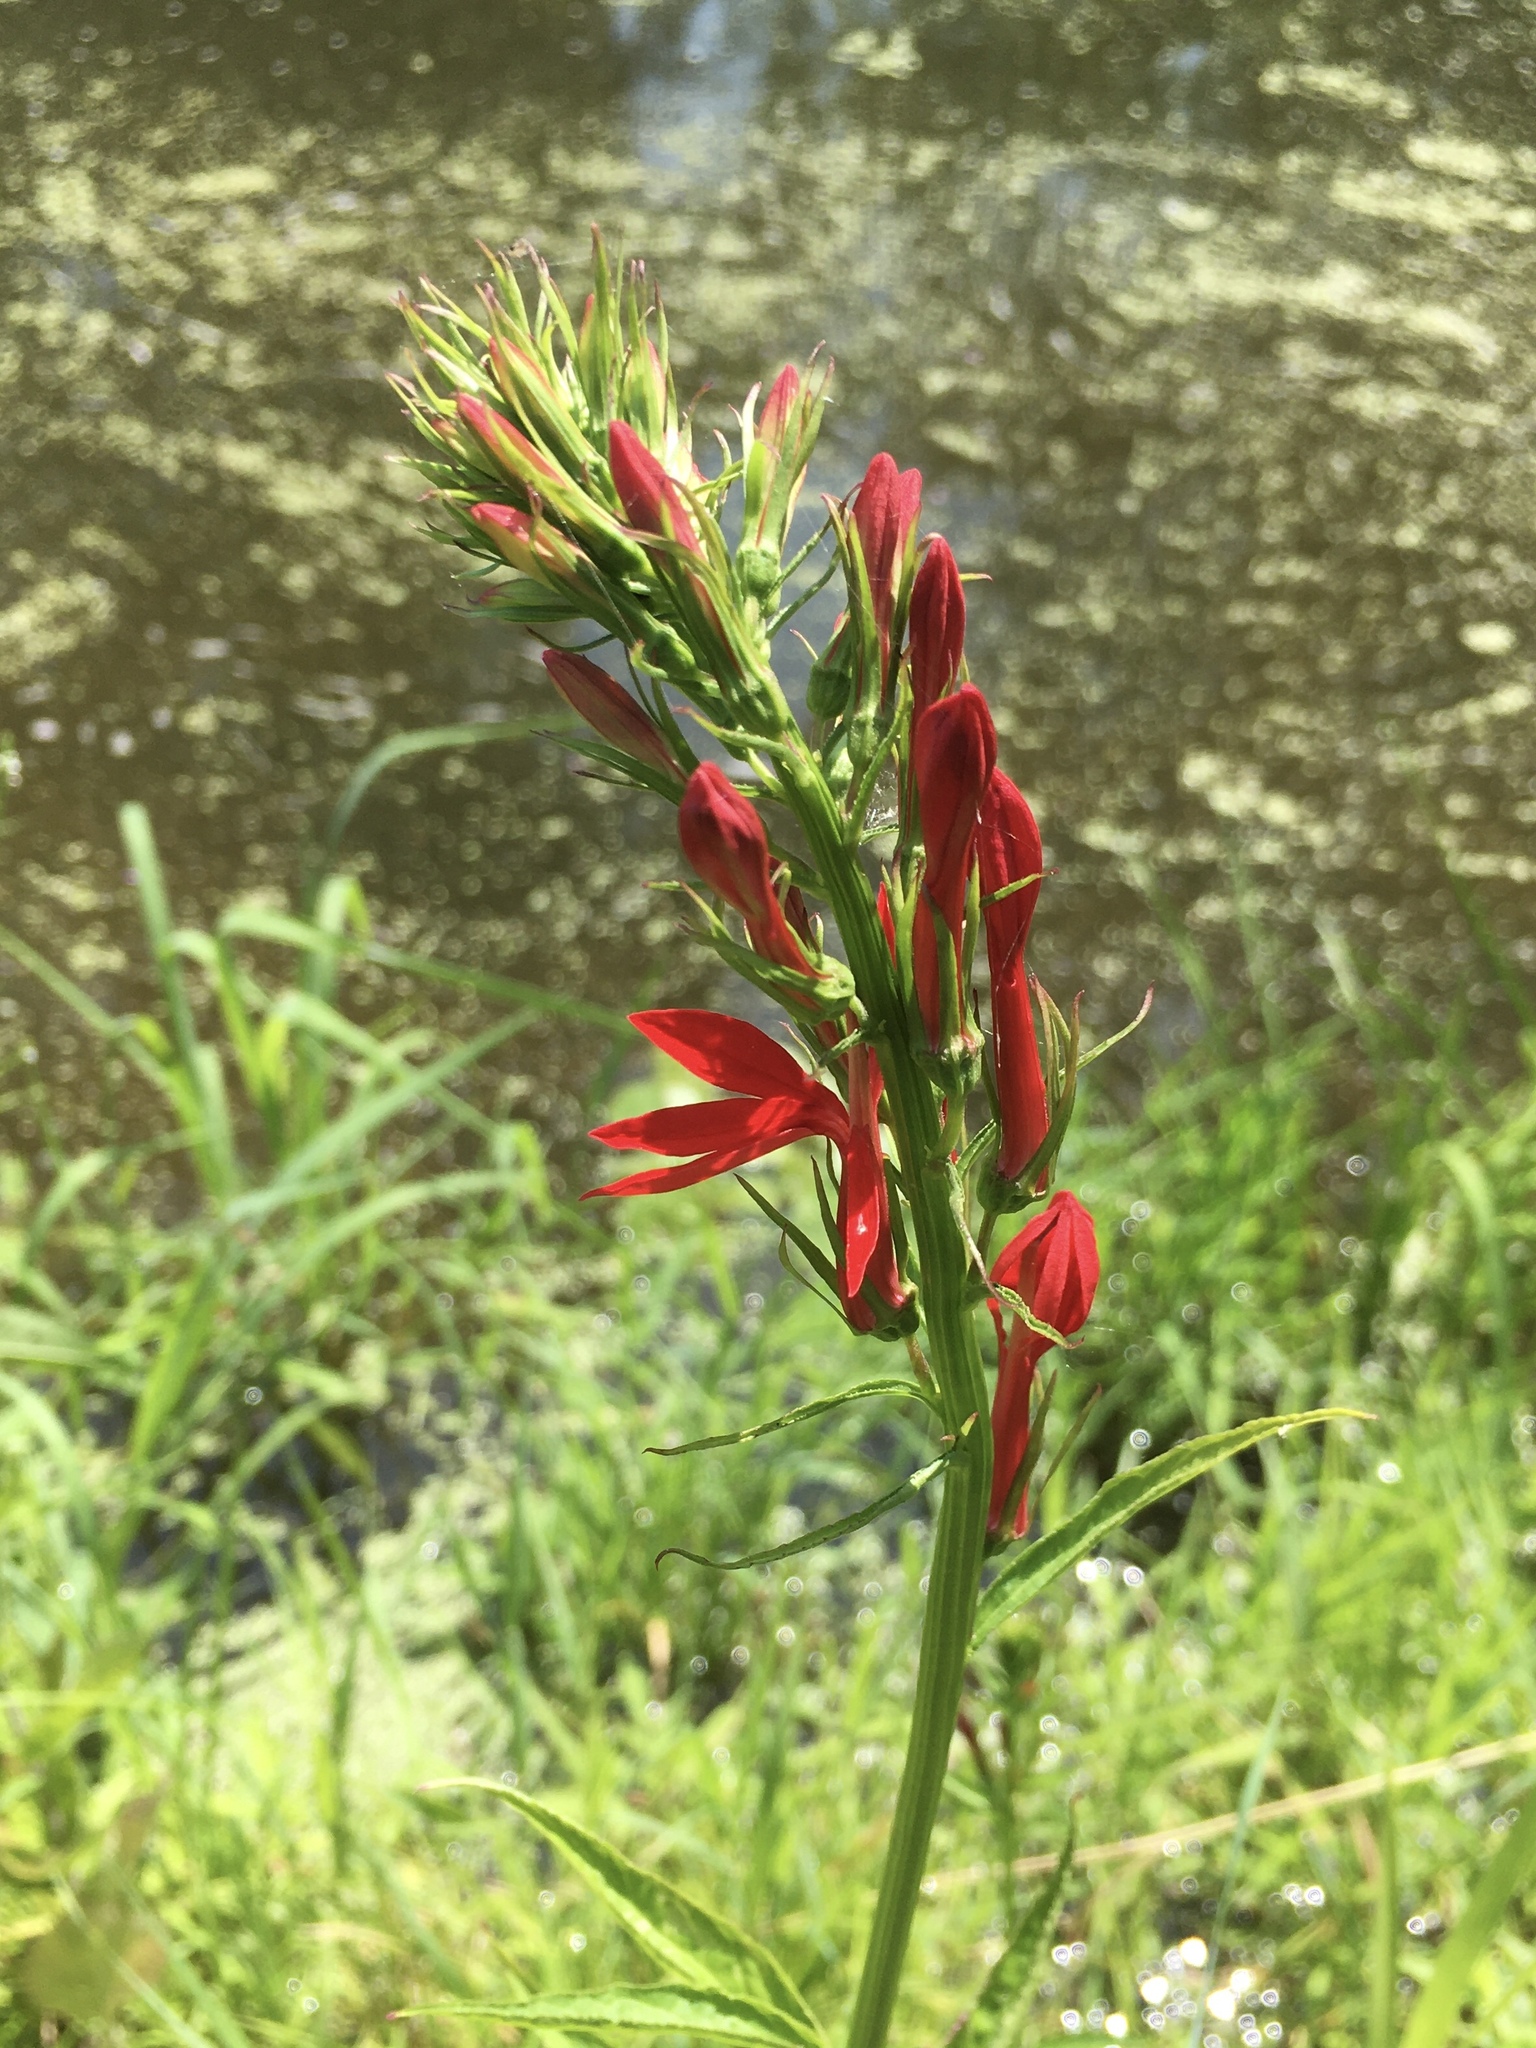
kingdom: Plantae
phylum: Tracheophyta
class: Magnoliopsida
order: Asterales
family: Campanulaceae
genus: Lobelia
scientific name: Lobelia cardinalis
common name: Cardinal flower
